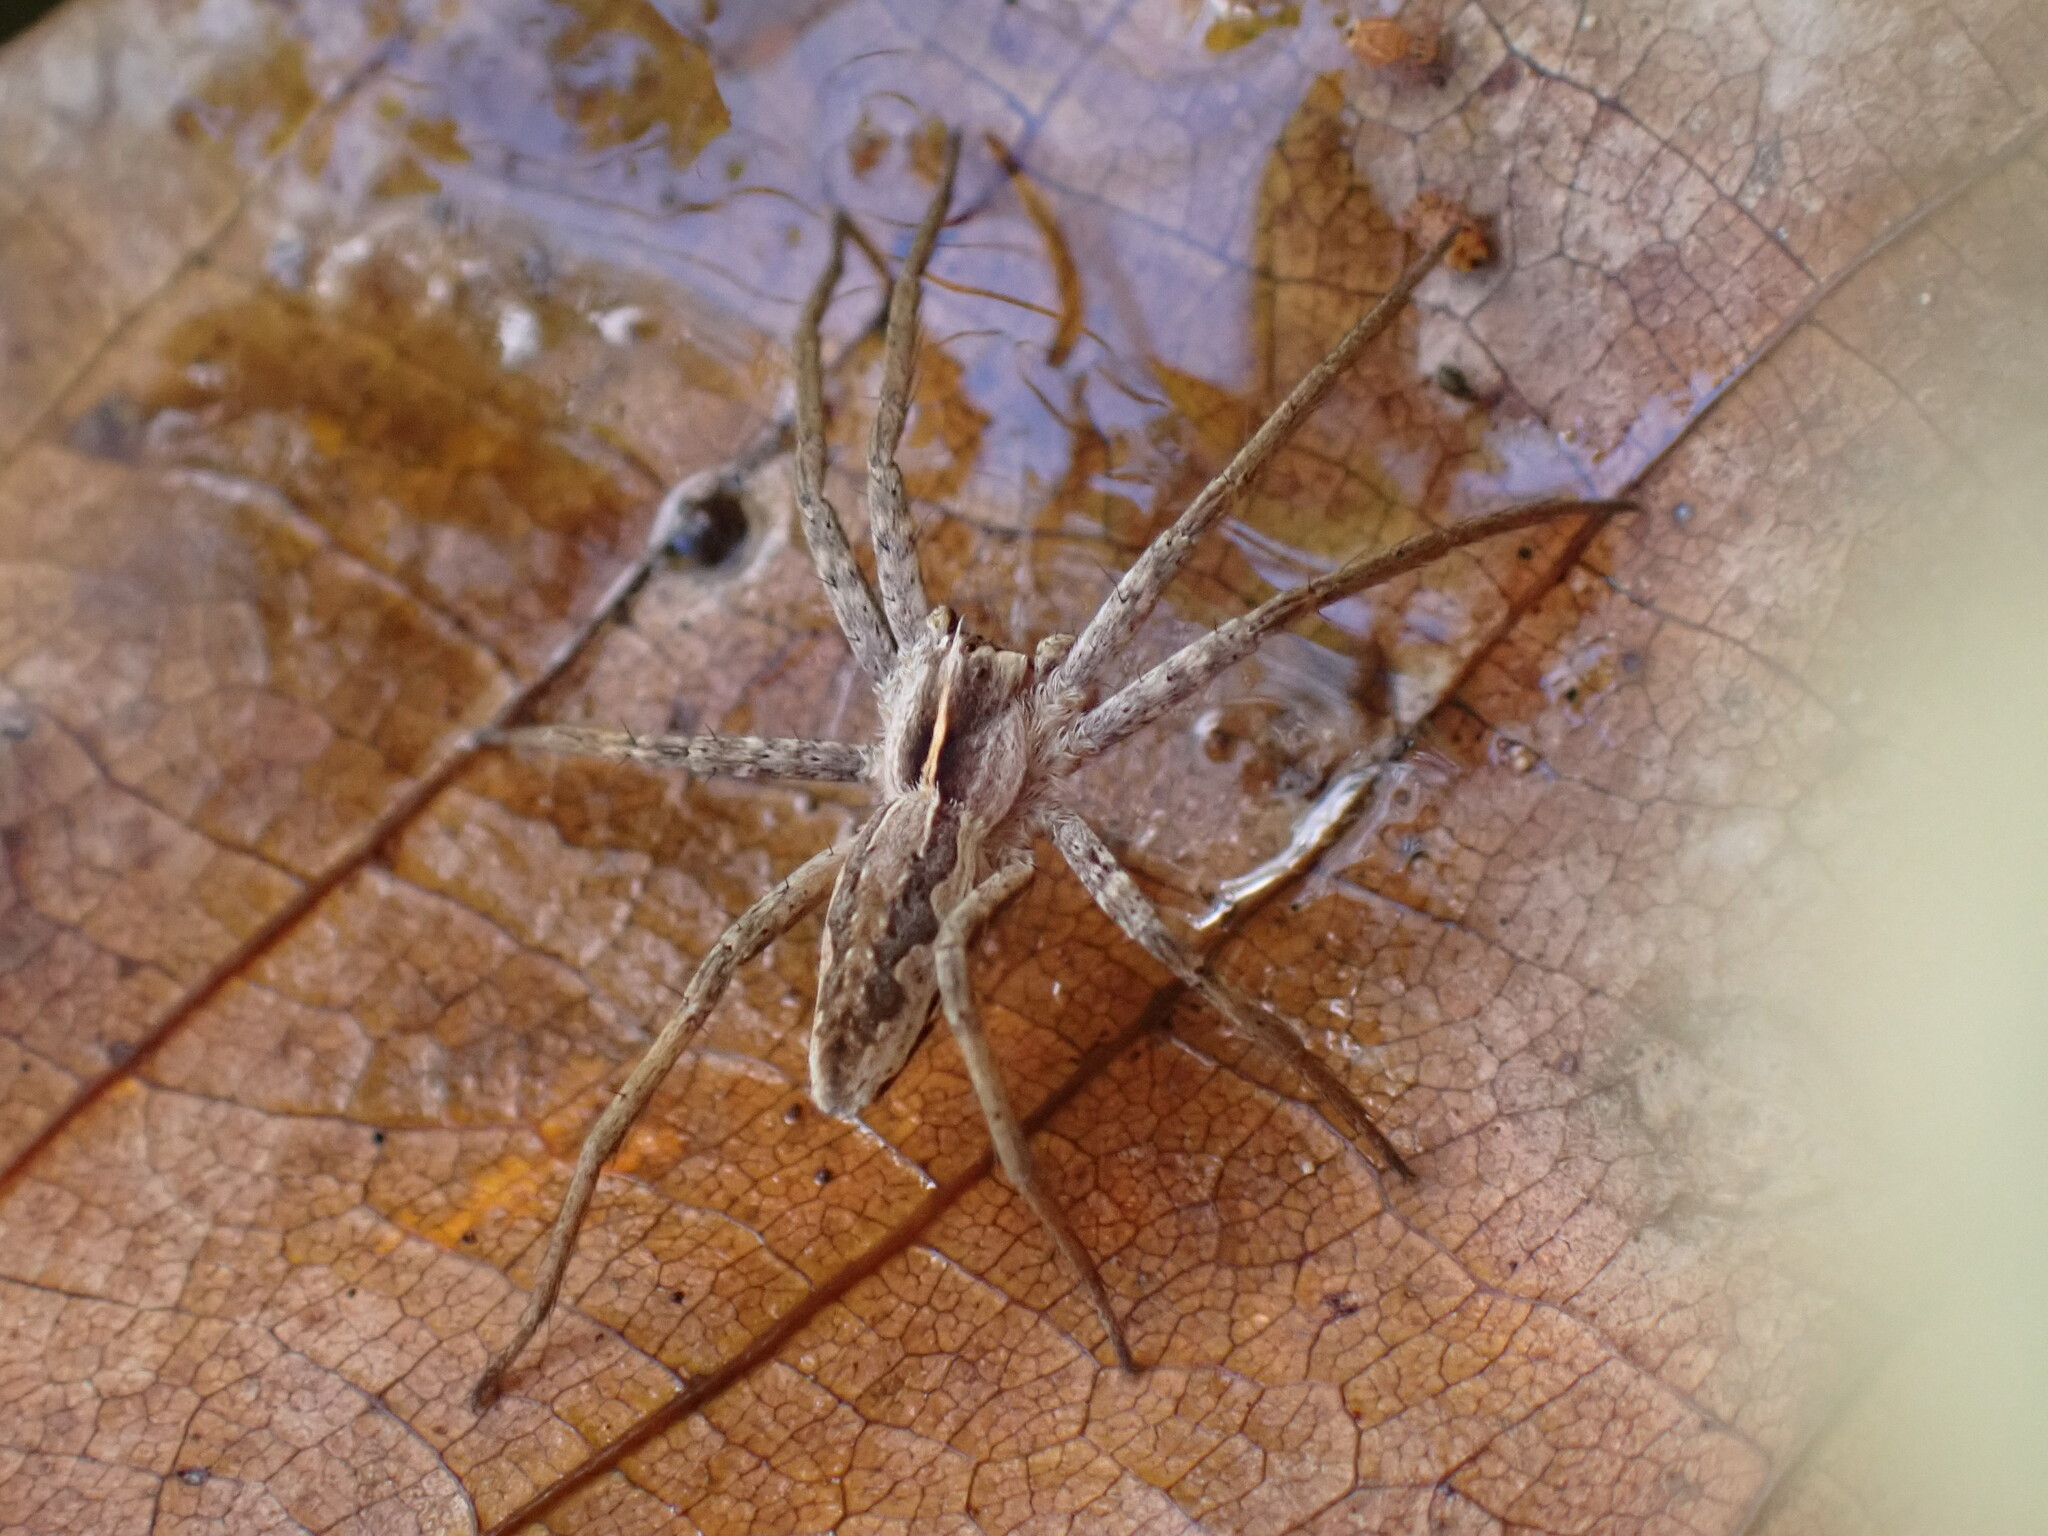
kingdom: Animalia
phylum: Arthropoda
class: Arachnida
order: Araneae
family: Pisauridae
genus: Pisaura
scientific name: Pisaura mirabilis
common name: Tent spider
